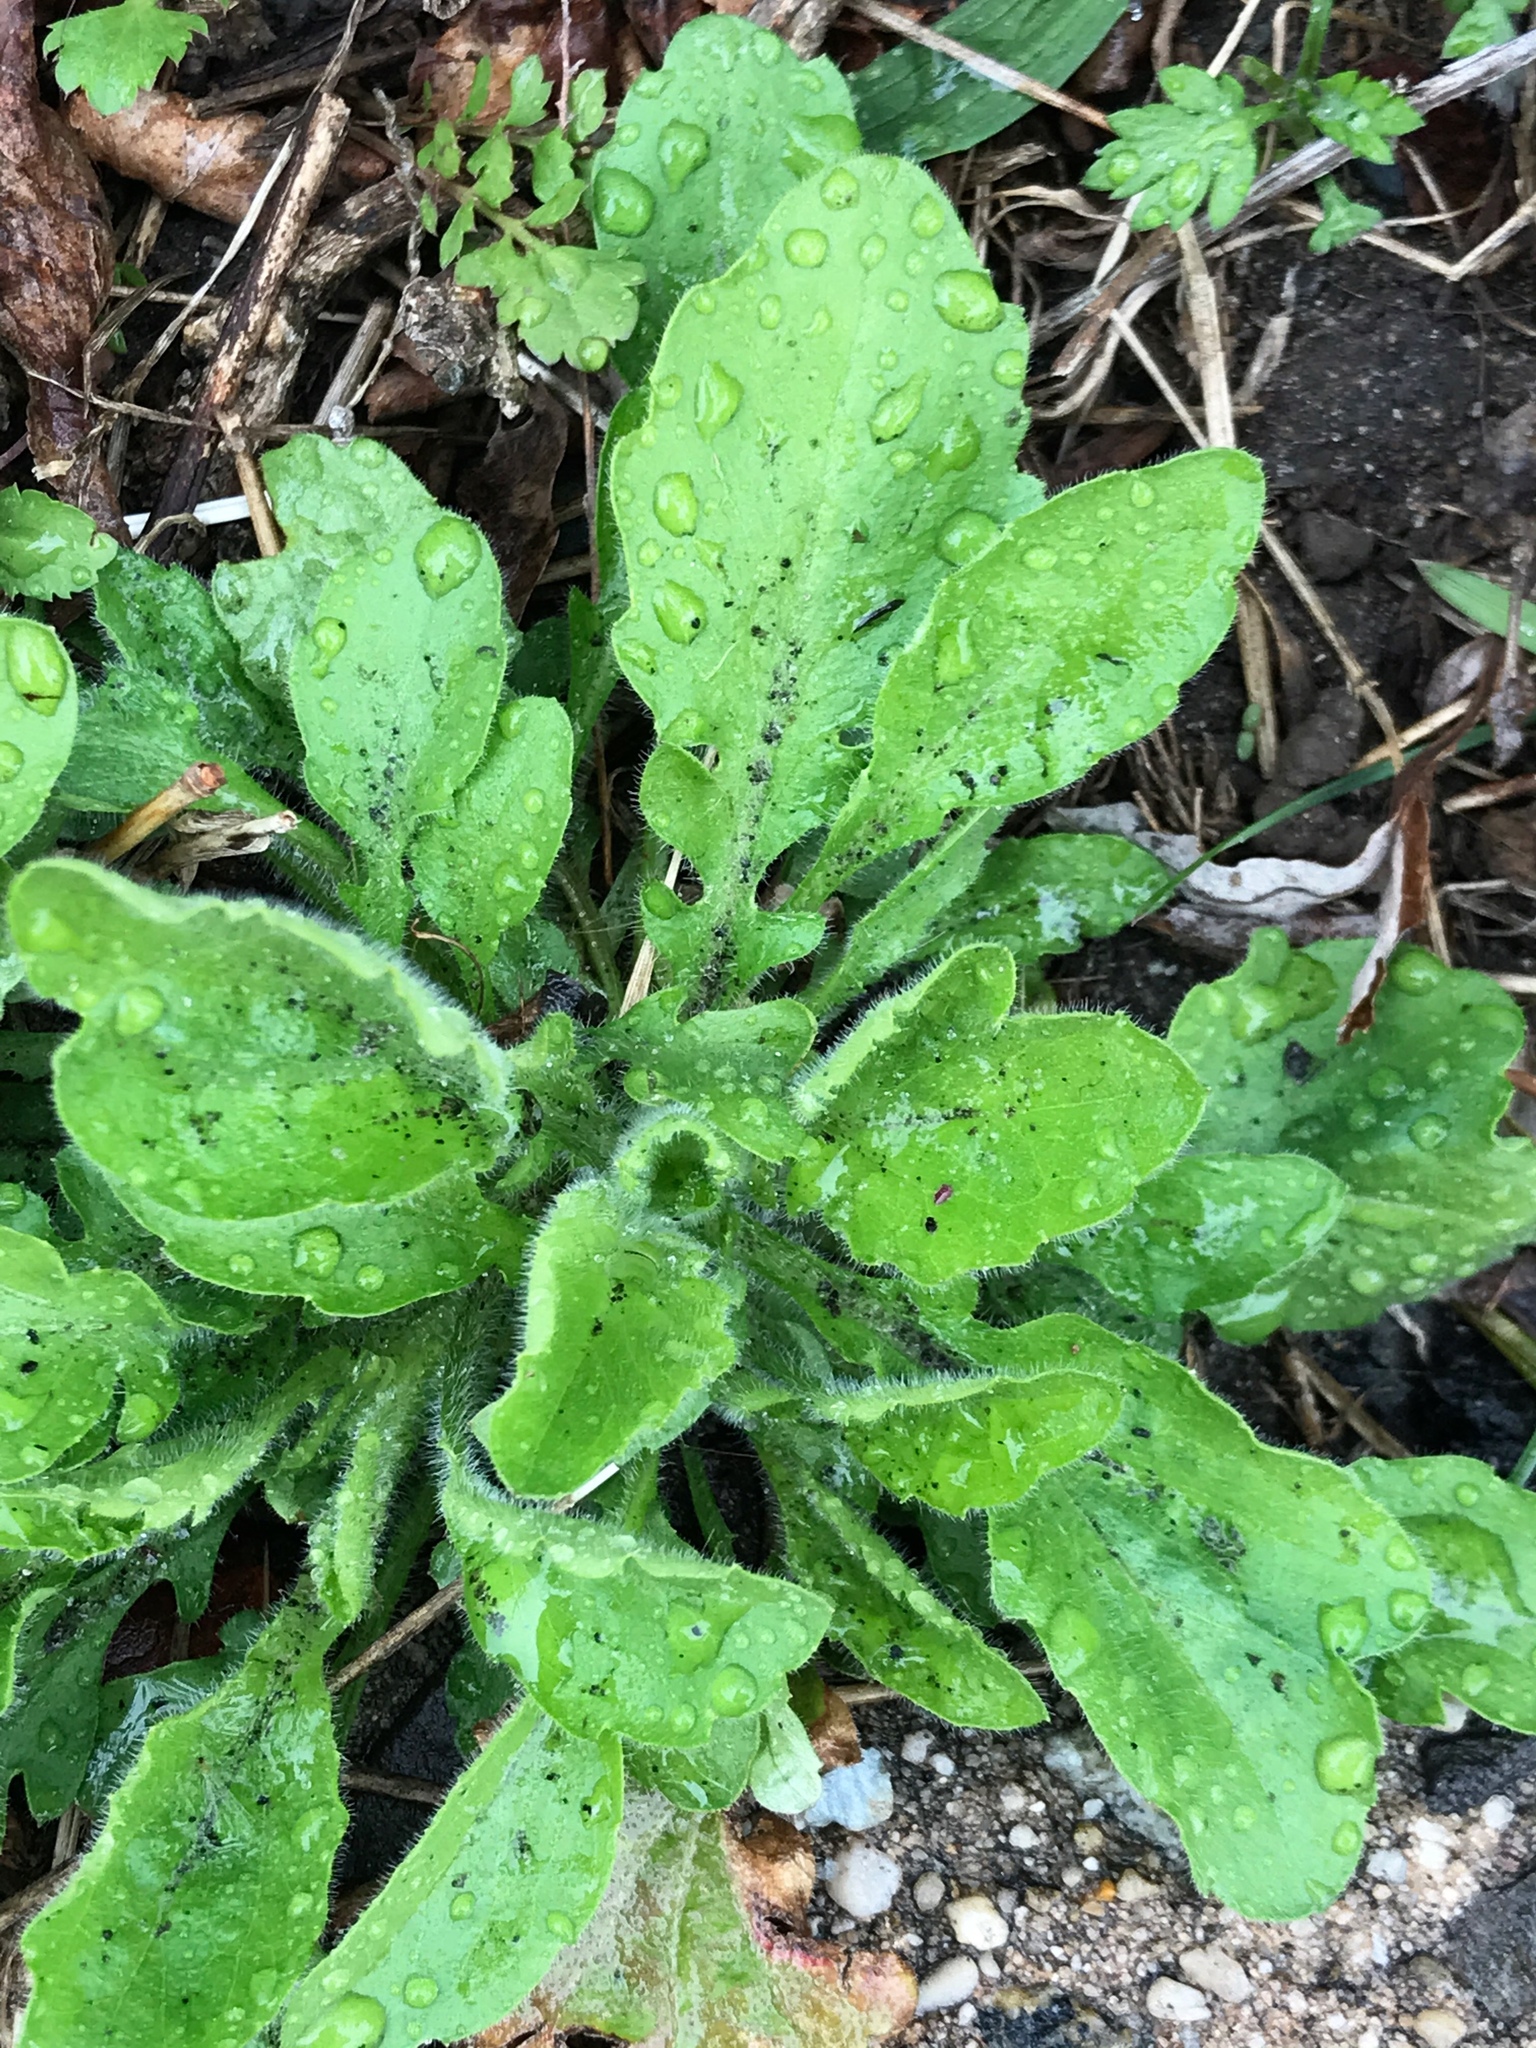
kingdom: Plantae
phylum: Tracheophyta
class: Magnoliopsida
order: Asterales
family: Asteraceae
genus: Erigeron
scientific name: Erigeron canadensis
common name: Canadian fleabane
